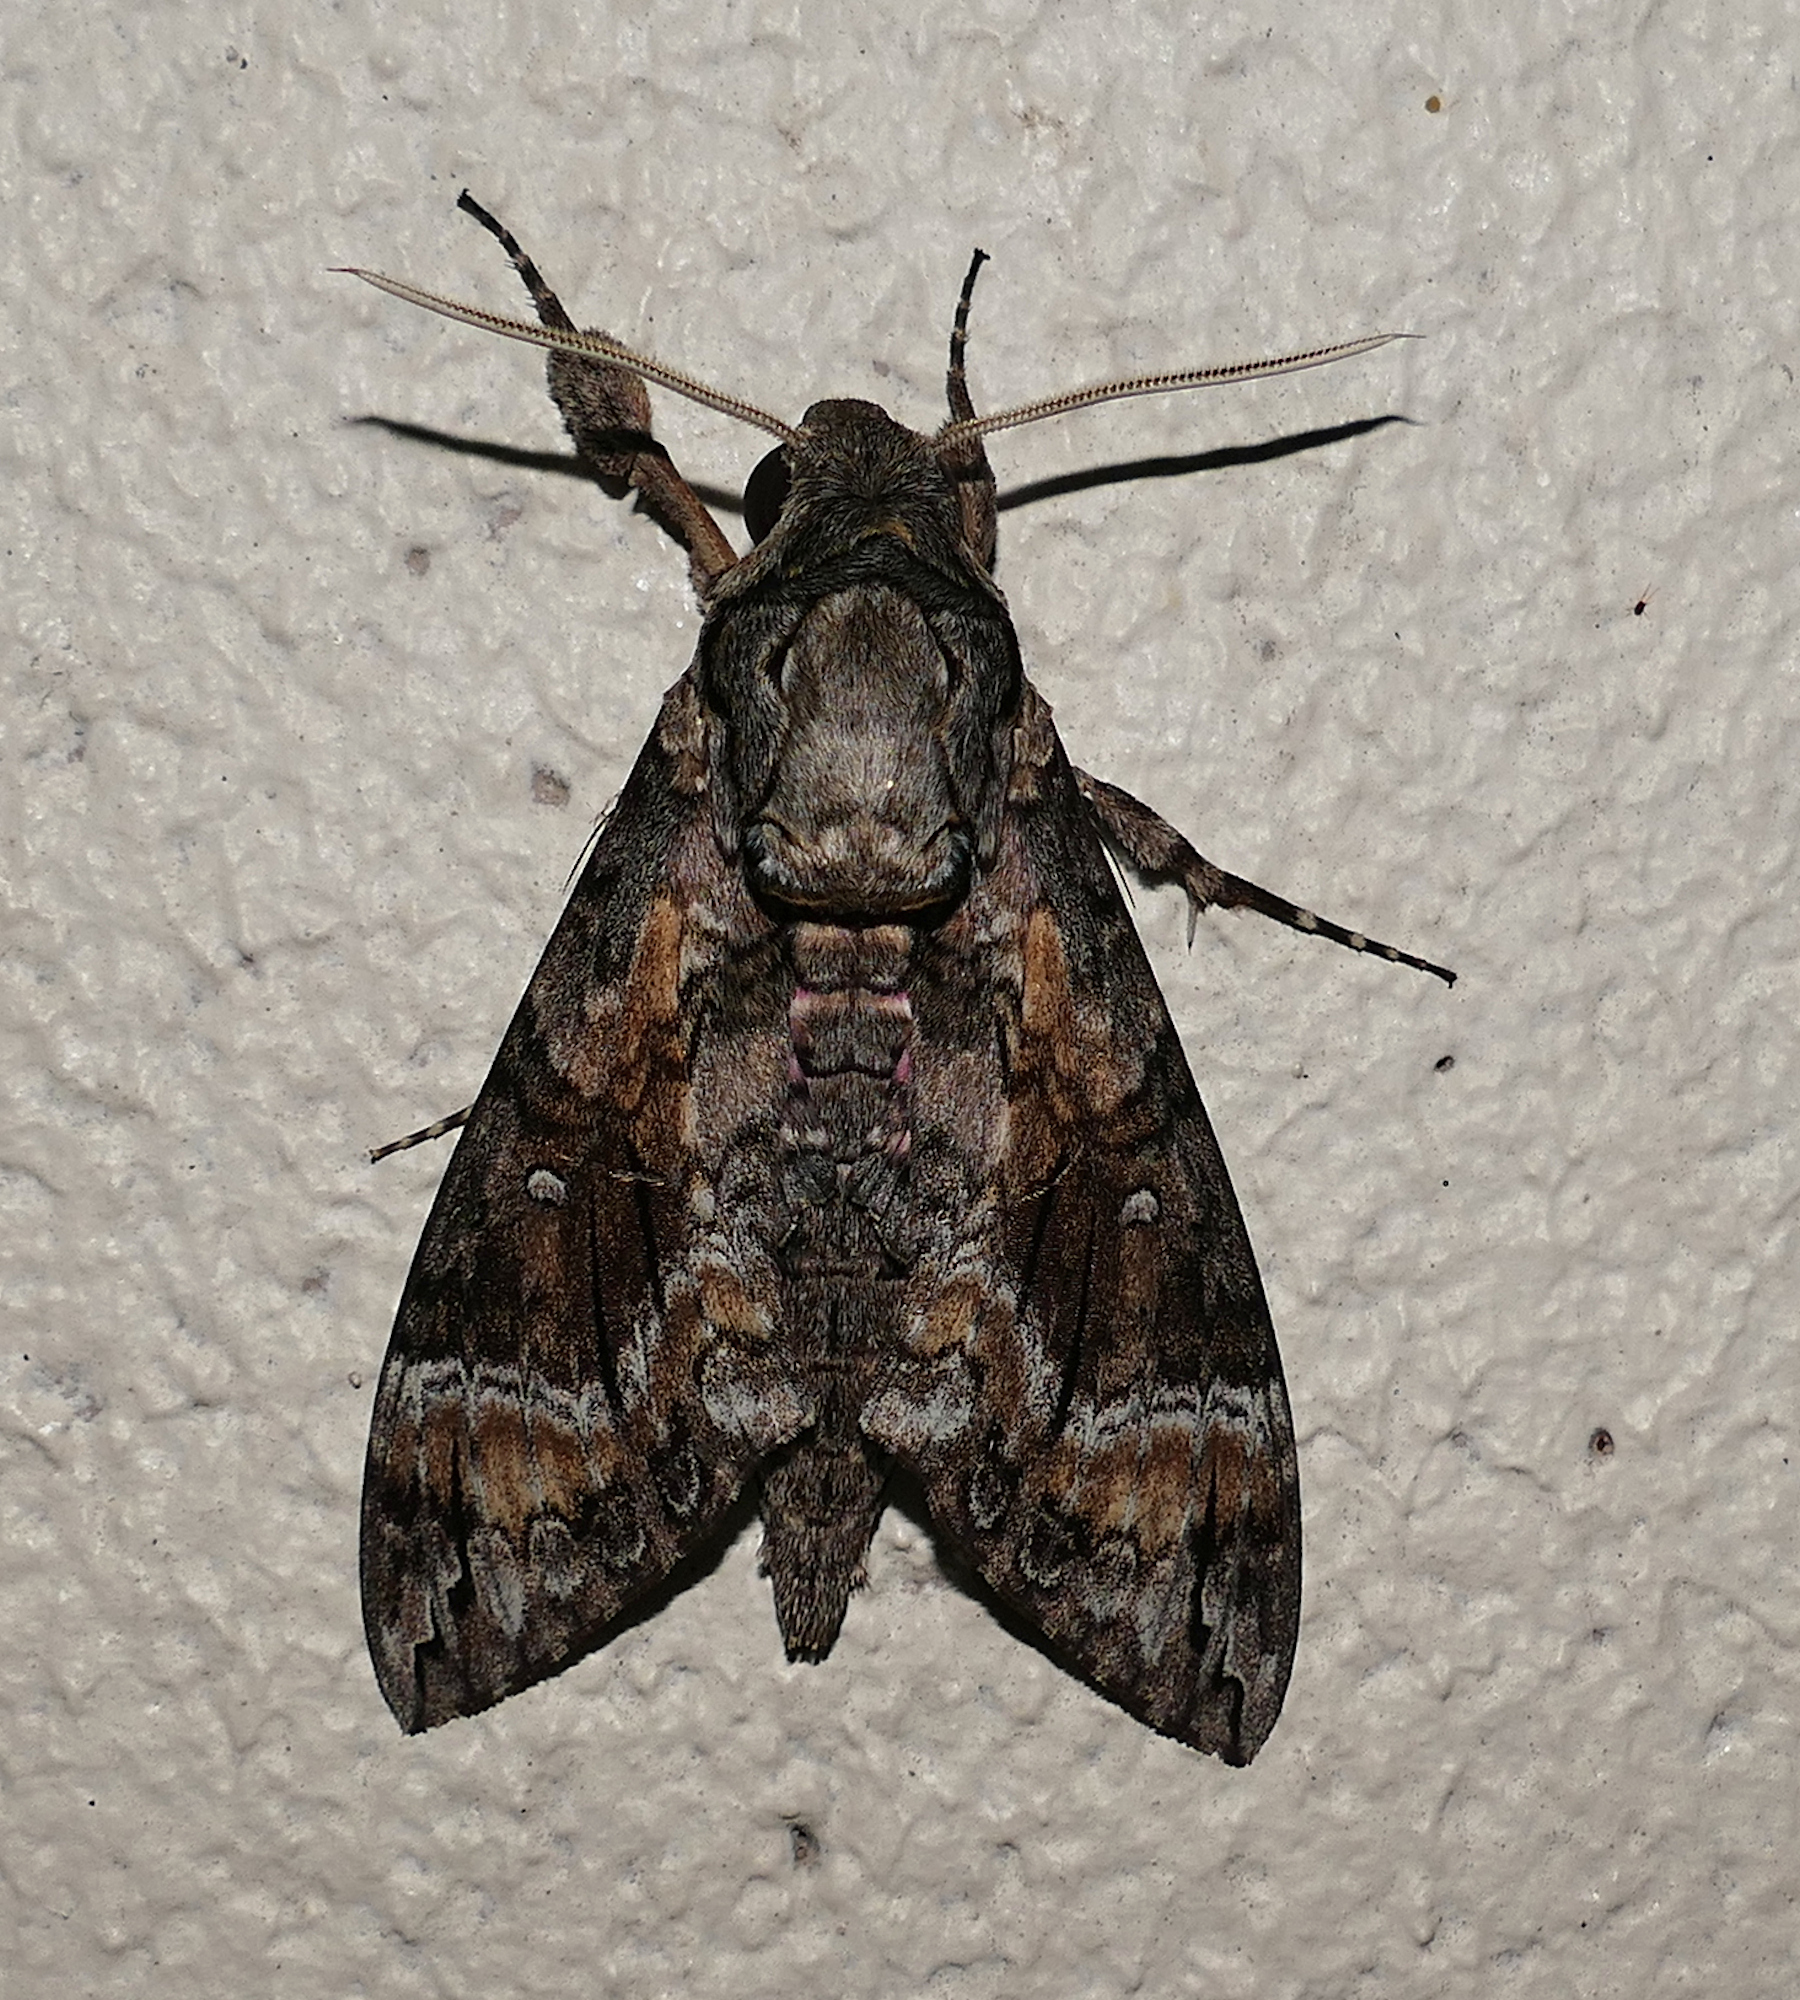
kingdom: Animalia
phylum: Arthropoda
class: Insecta
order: Lepidoptera
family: Sphingidae
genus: Agrius
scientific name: Agrius cingulata
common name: Pink-spotted hawkmoth
